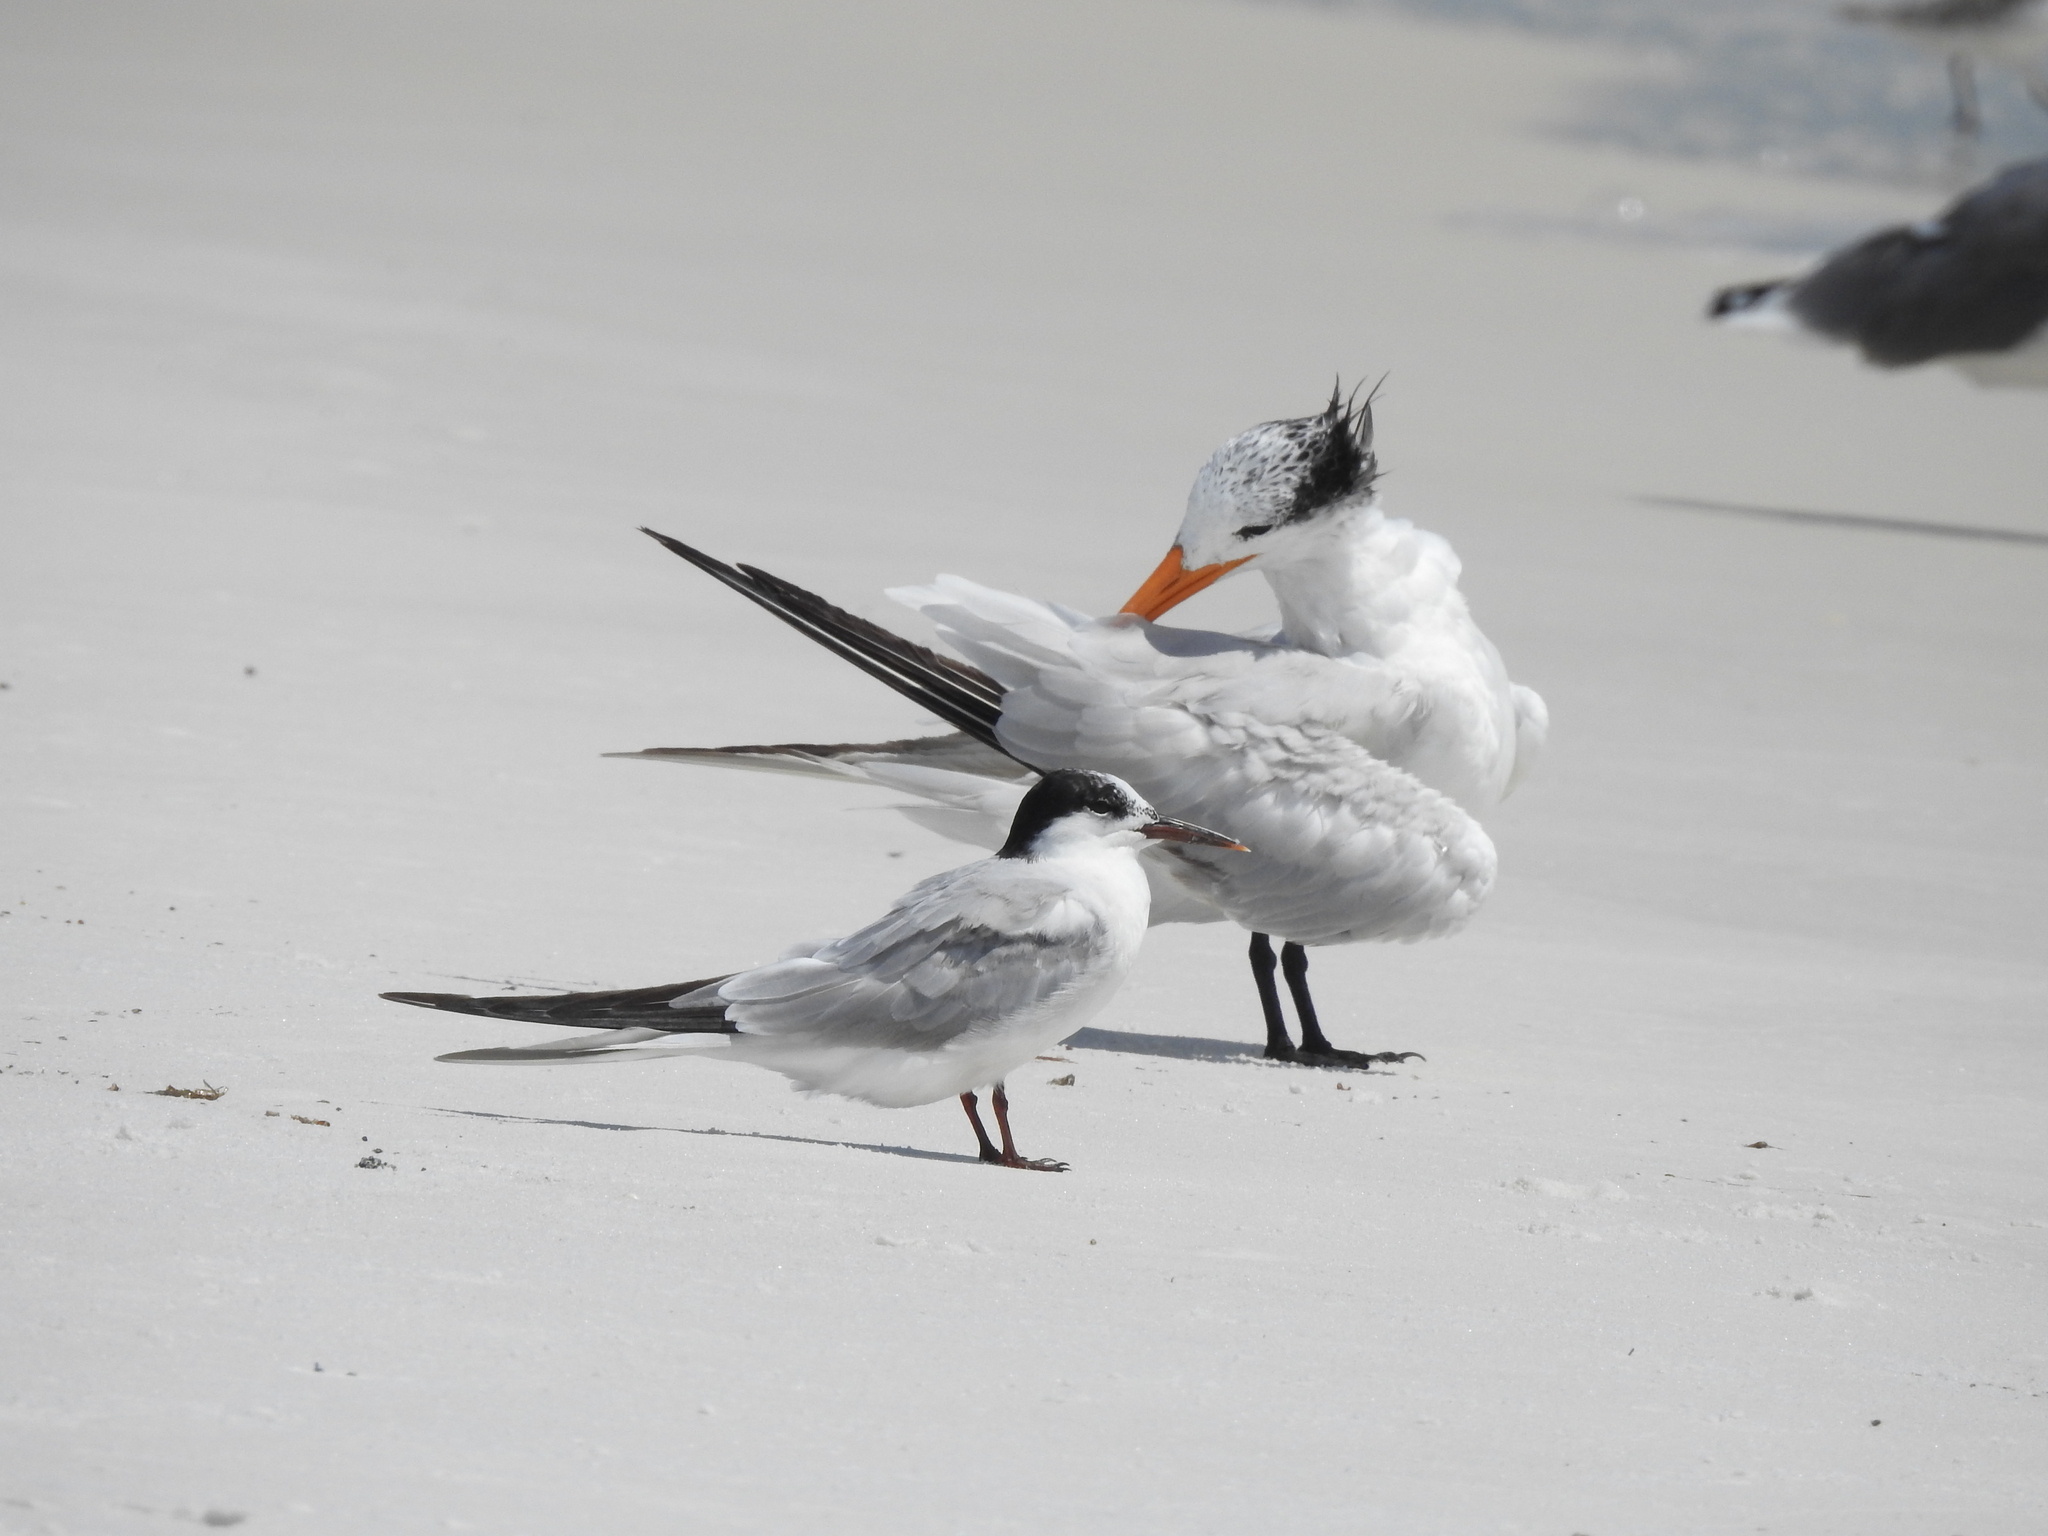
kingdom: Animalia
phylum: Chordata
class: Aves
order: Charadriiformes
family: Laridae
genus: Sterna
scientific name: Sterna hirundo
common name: Common tern
